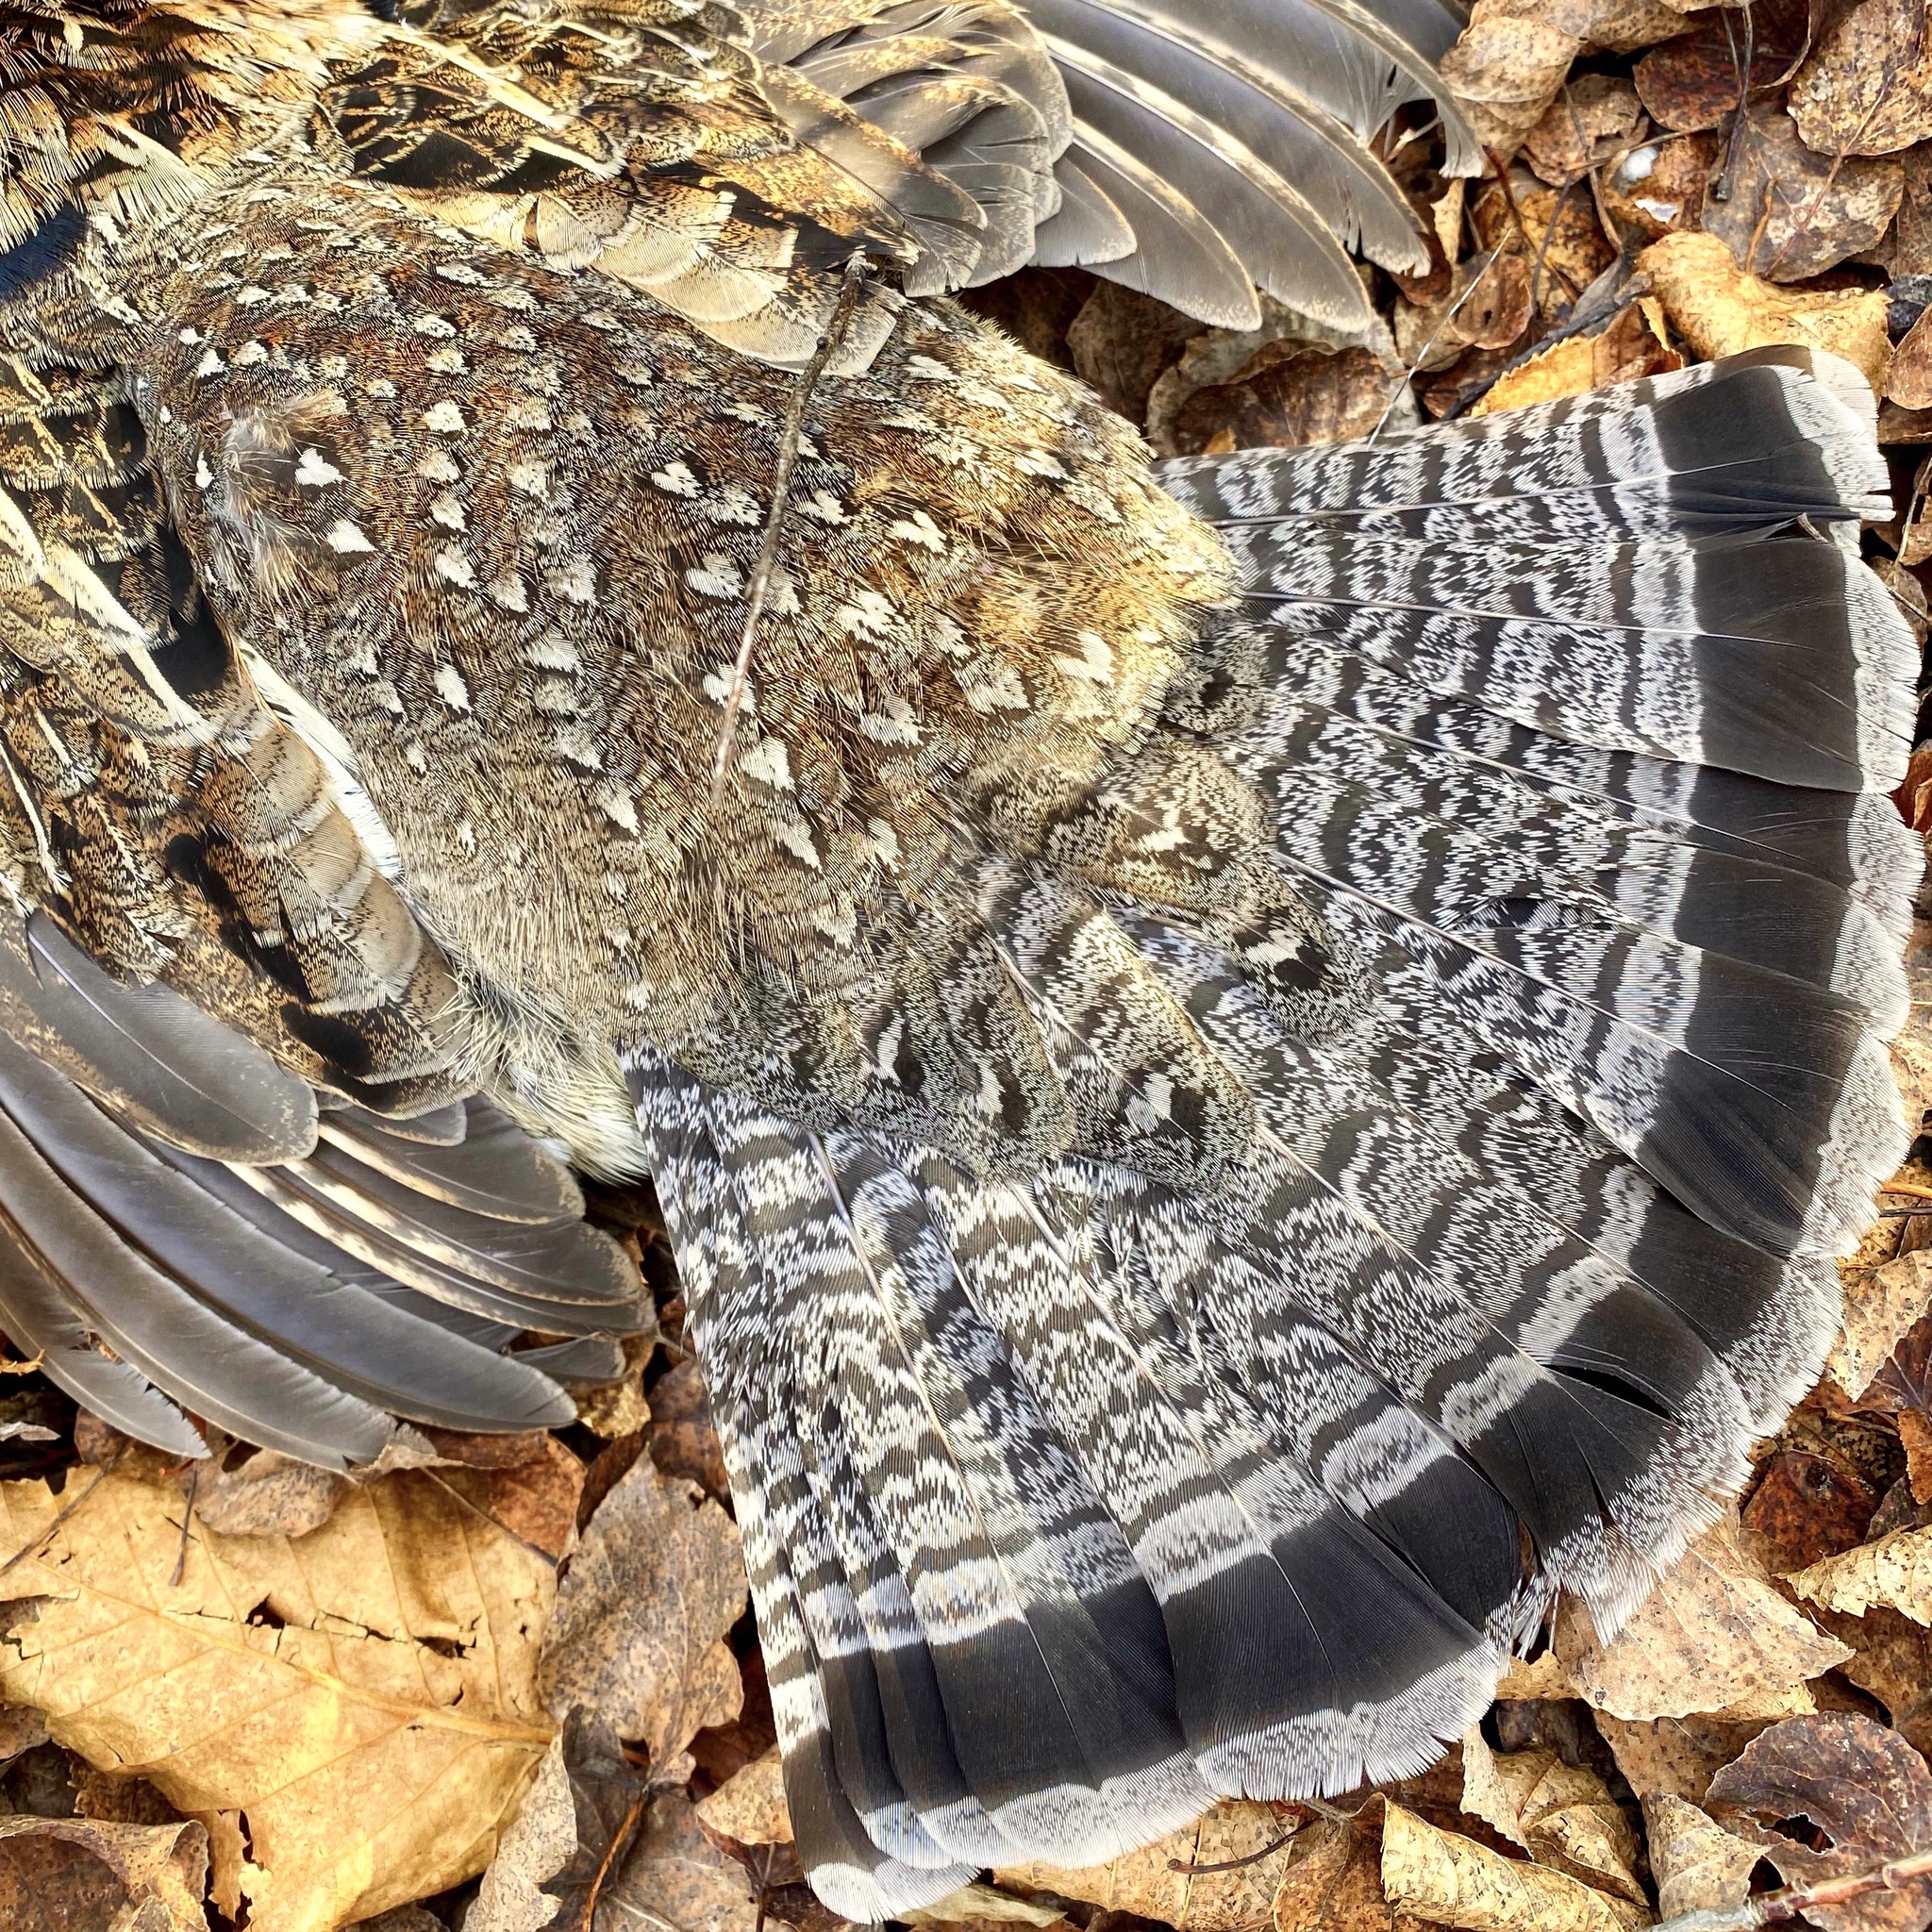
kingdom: Animalia
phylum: Chordata
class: Aves
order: Galliformes
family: Phasianidae
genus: Bonasa
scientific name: Bonasa umbellus
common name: Ruffed grouse
